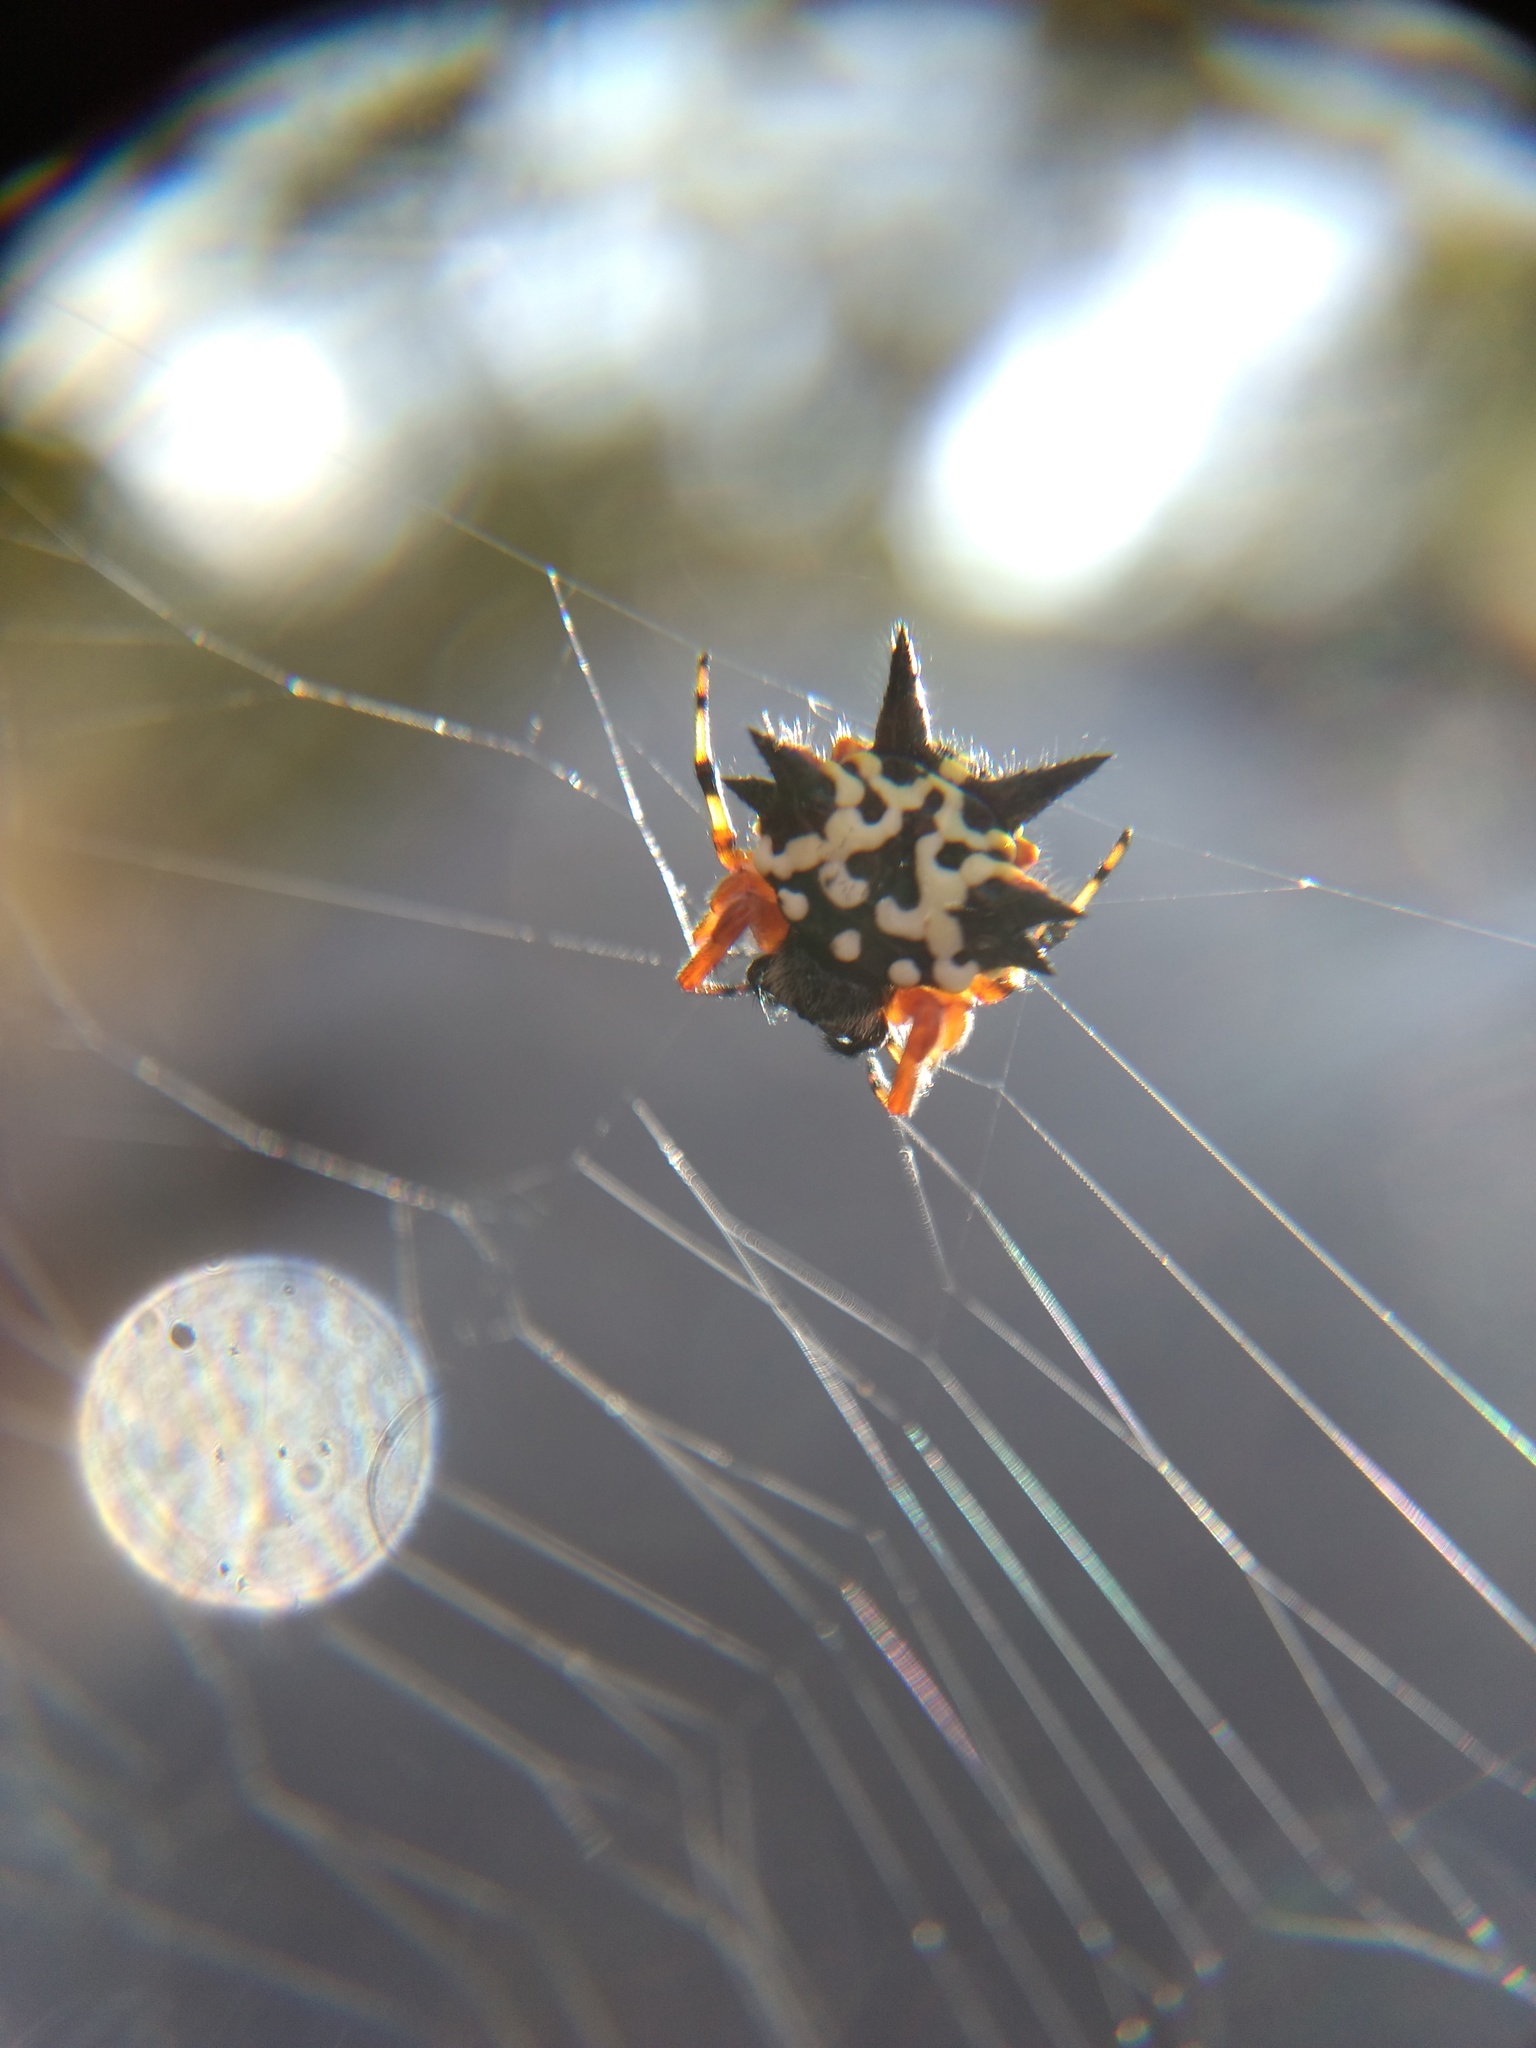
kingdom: Animalia
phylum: Arthropoda
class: Arachnida
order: Araneae
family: Araneidae
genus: Austracantha
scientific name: Austracantha minax
